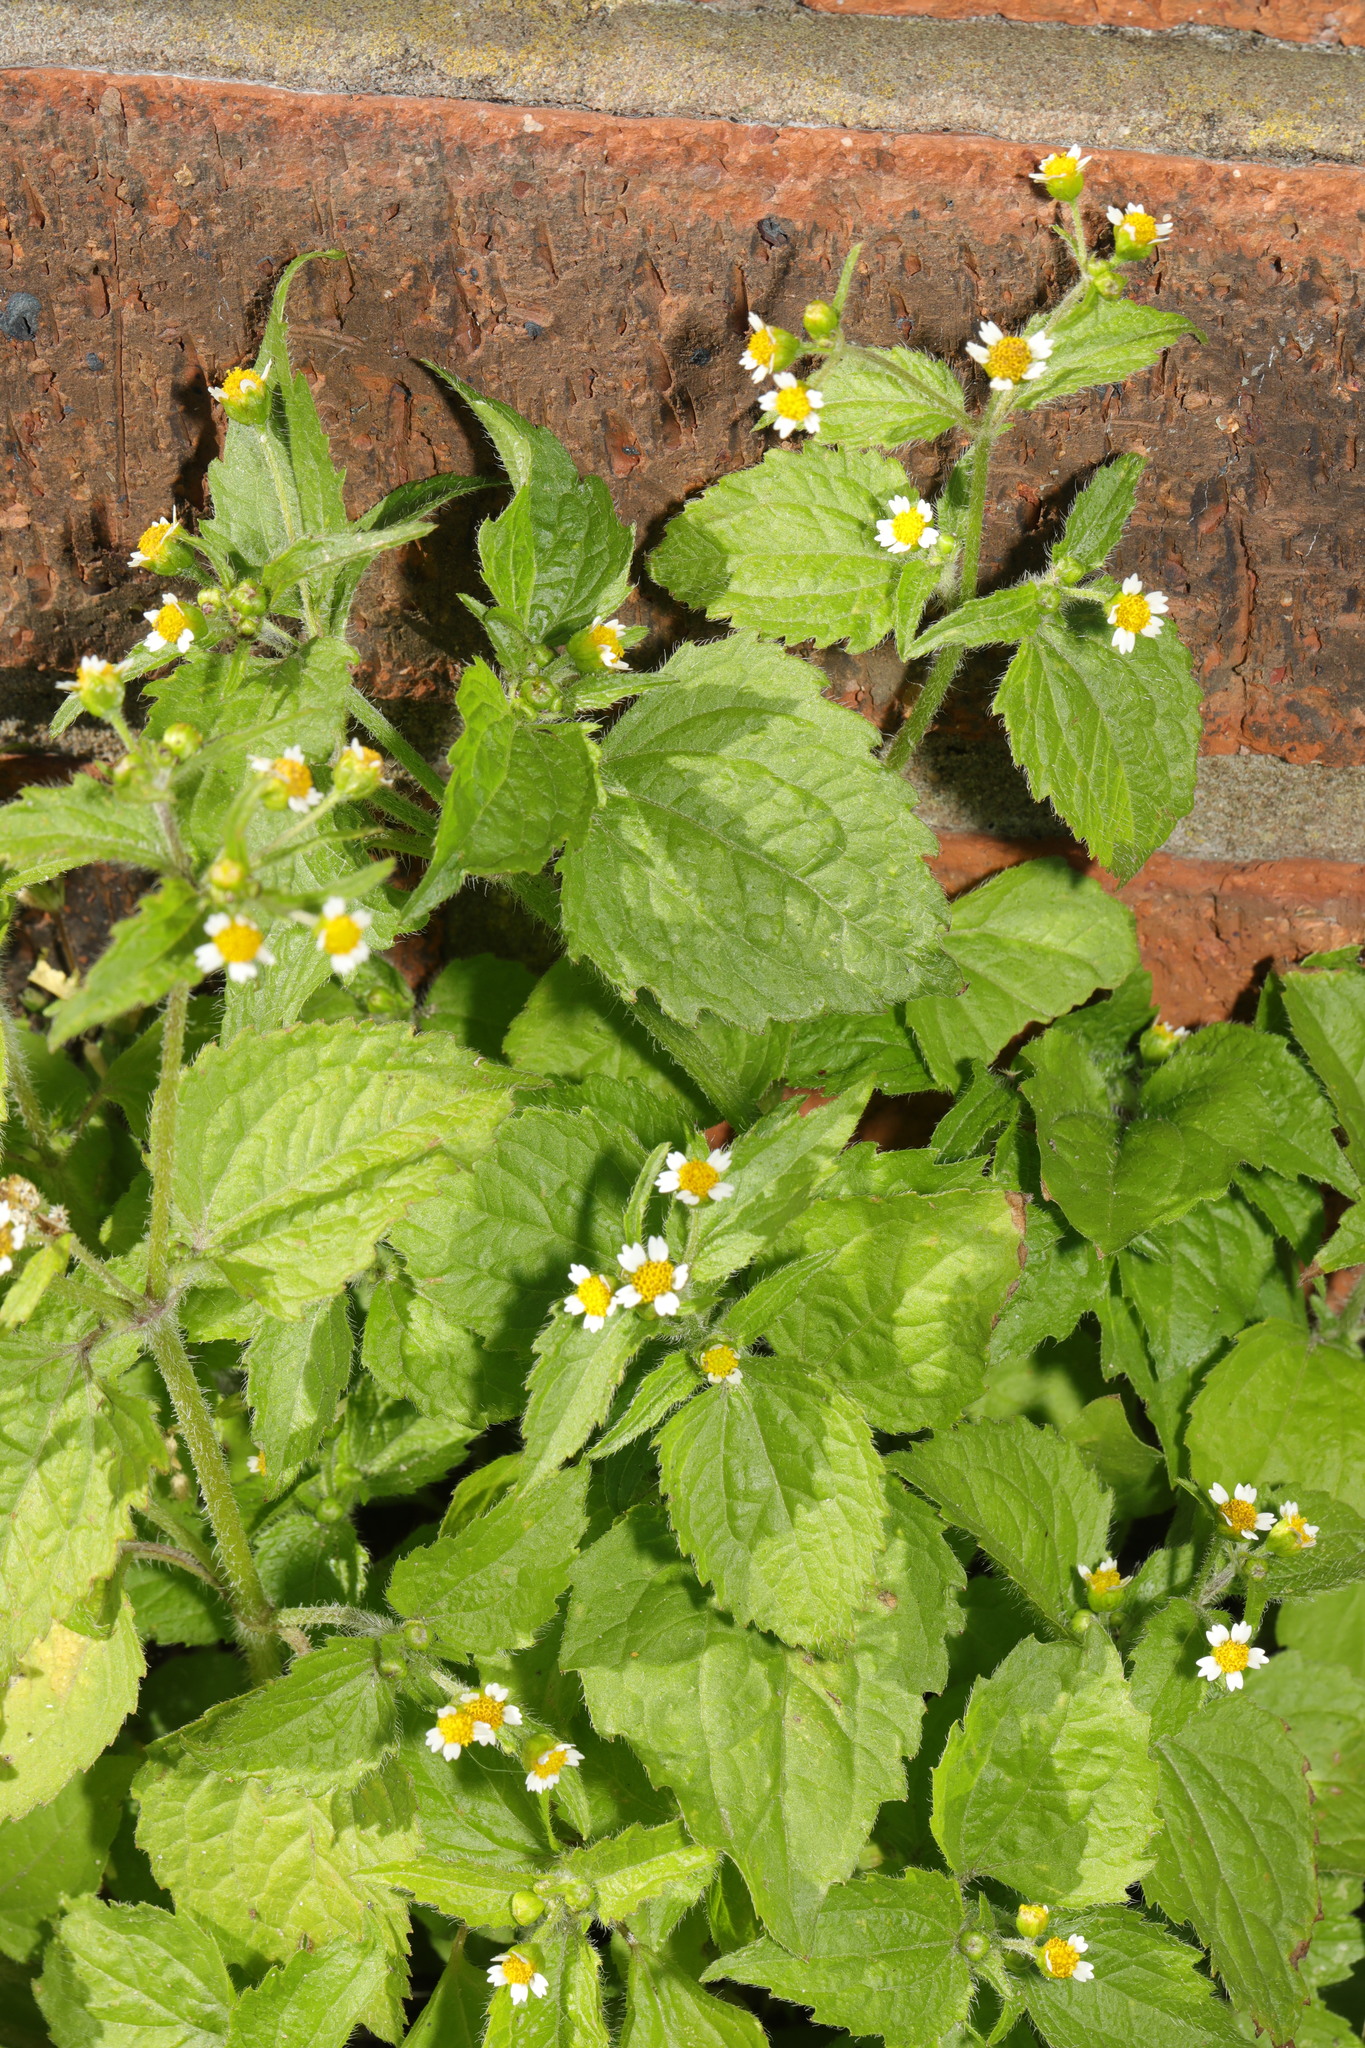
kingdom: Plantae
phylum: Tracheophyta
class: Magnoliopsida
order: Asterales
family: Asteraceae
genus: Galinsoga
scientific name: Galinsoga quadriradiata
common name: Shaggy soldier
